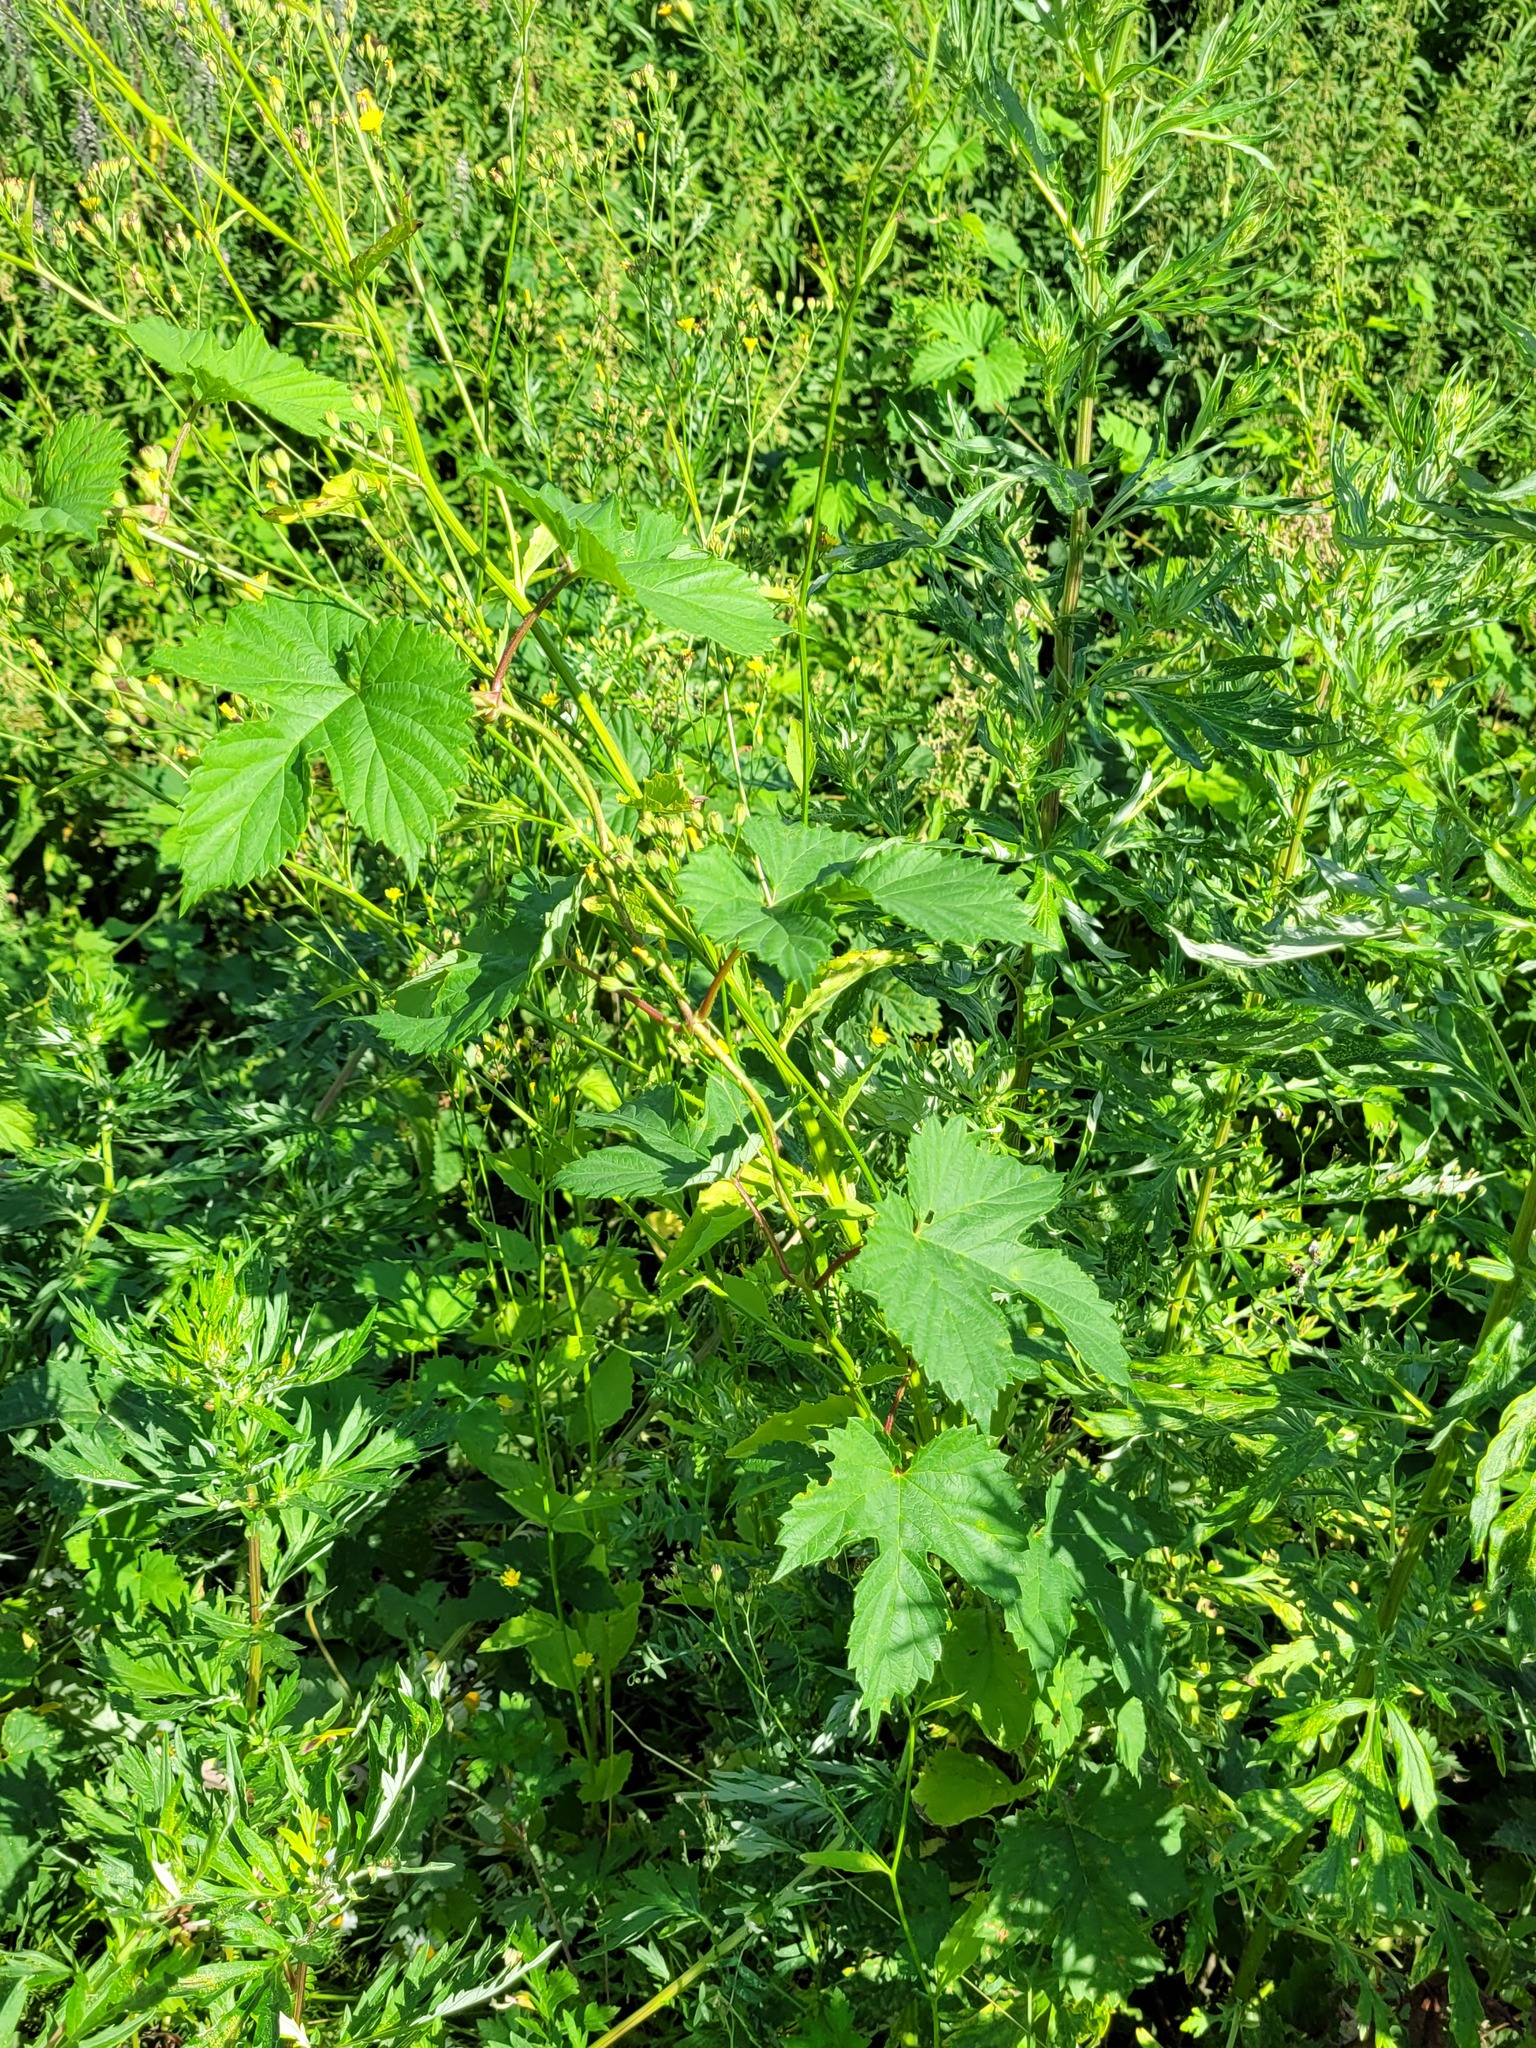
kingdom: Plantae
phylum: Tracheophyta
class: Magnoliopsida
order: Rosales
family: Cannabaceae
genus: Humulus
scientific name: Humulus lupulus
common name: Hop
